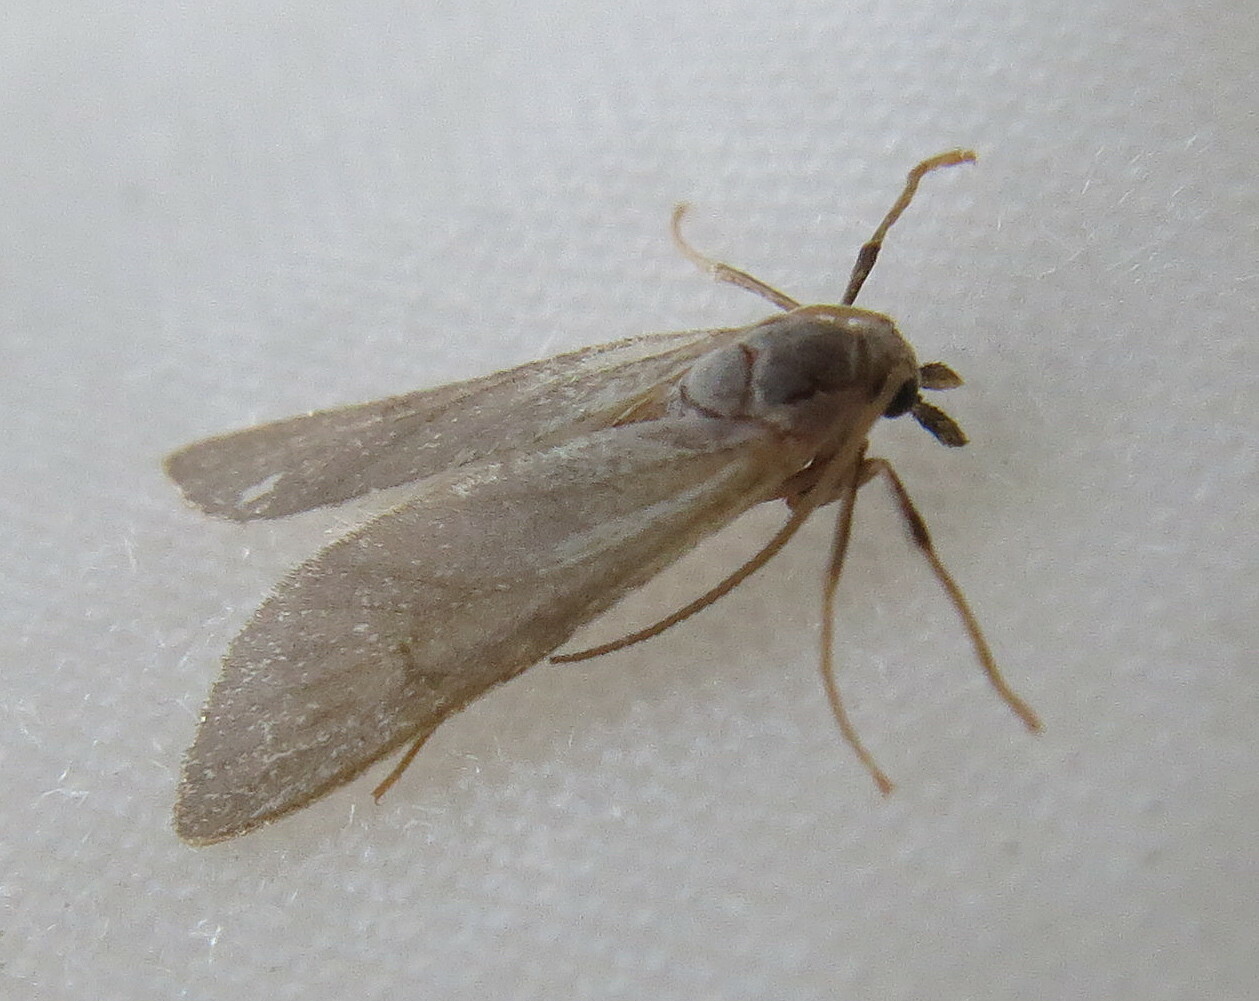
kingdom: Animalia
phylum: Arthropoda
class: Insecta
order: Lepidoptera
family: Crambidae
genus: Acentria
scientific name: Acentria ephemerella
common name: European water moth
